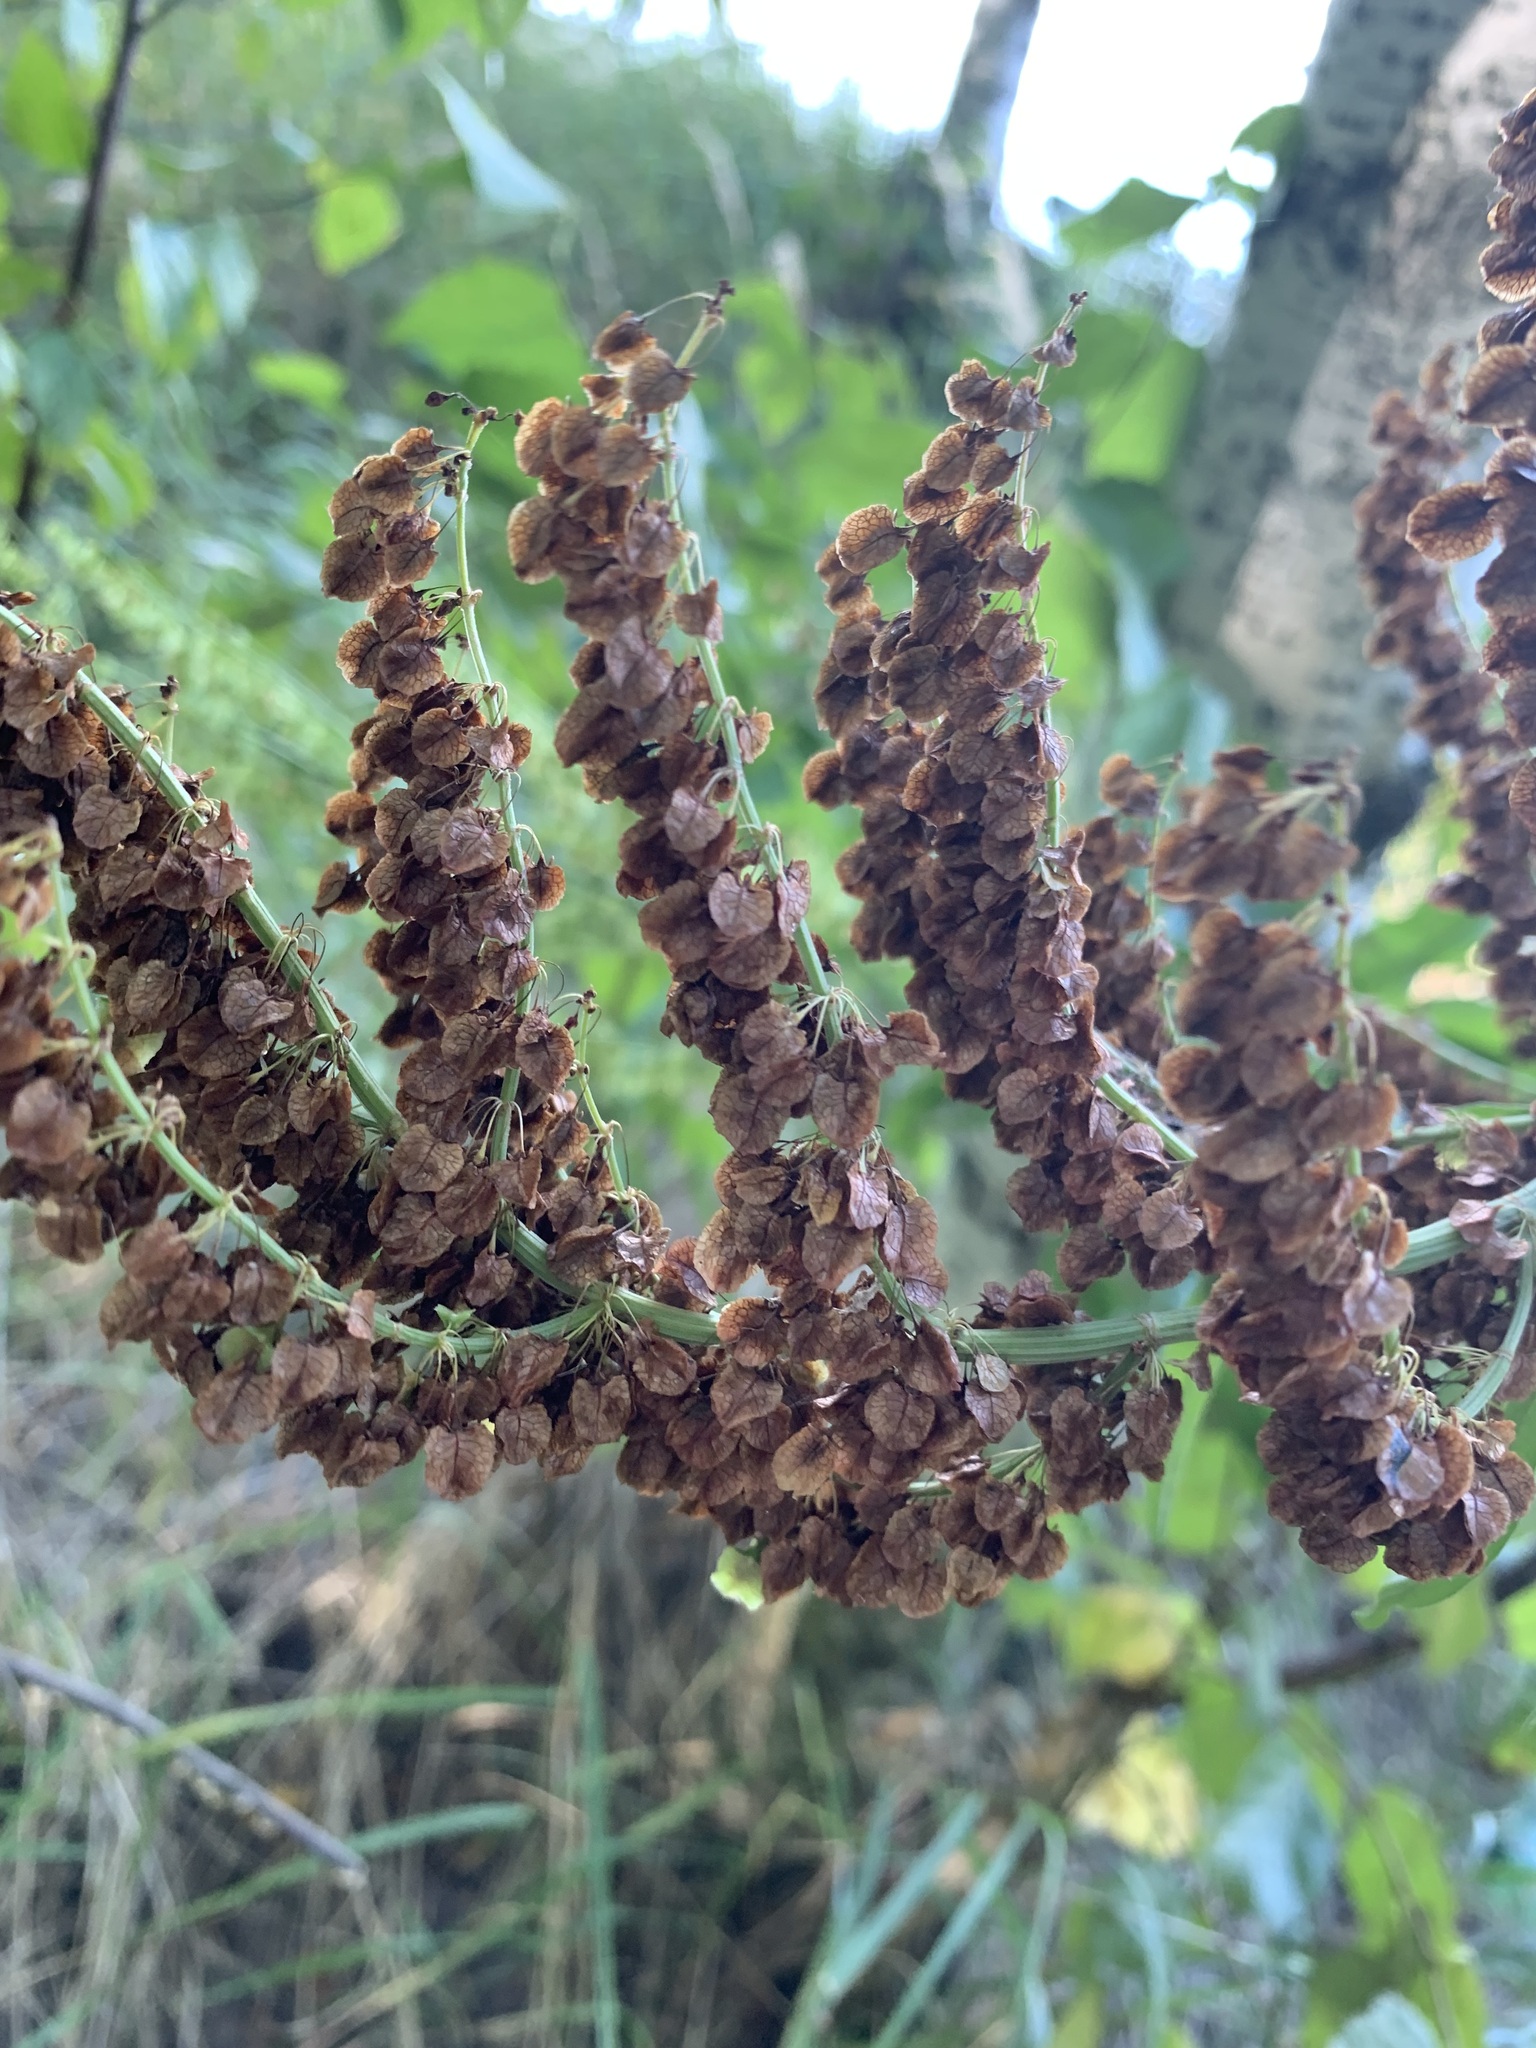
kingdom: Plantae
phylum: Tracheophyta
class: Magnoliopsida
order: Caryophyllales
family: Polygonaceae
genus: Rumex
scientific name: Rumex aquaticus
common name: Scottish dock
